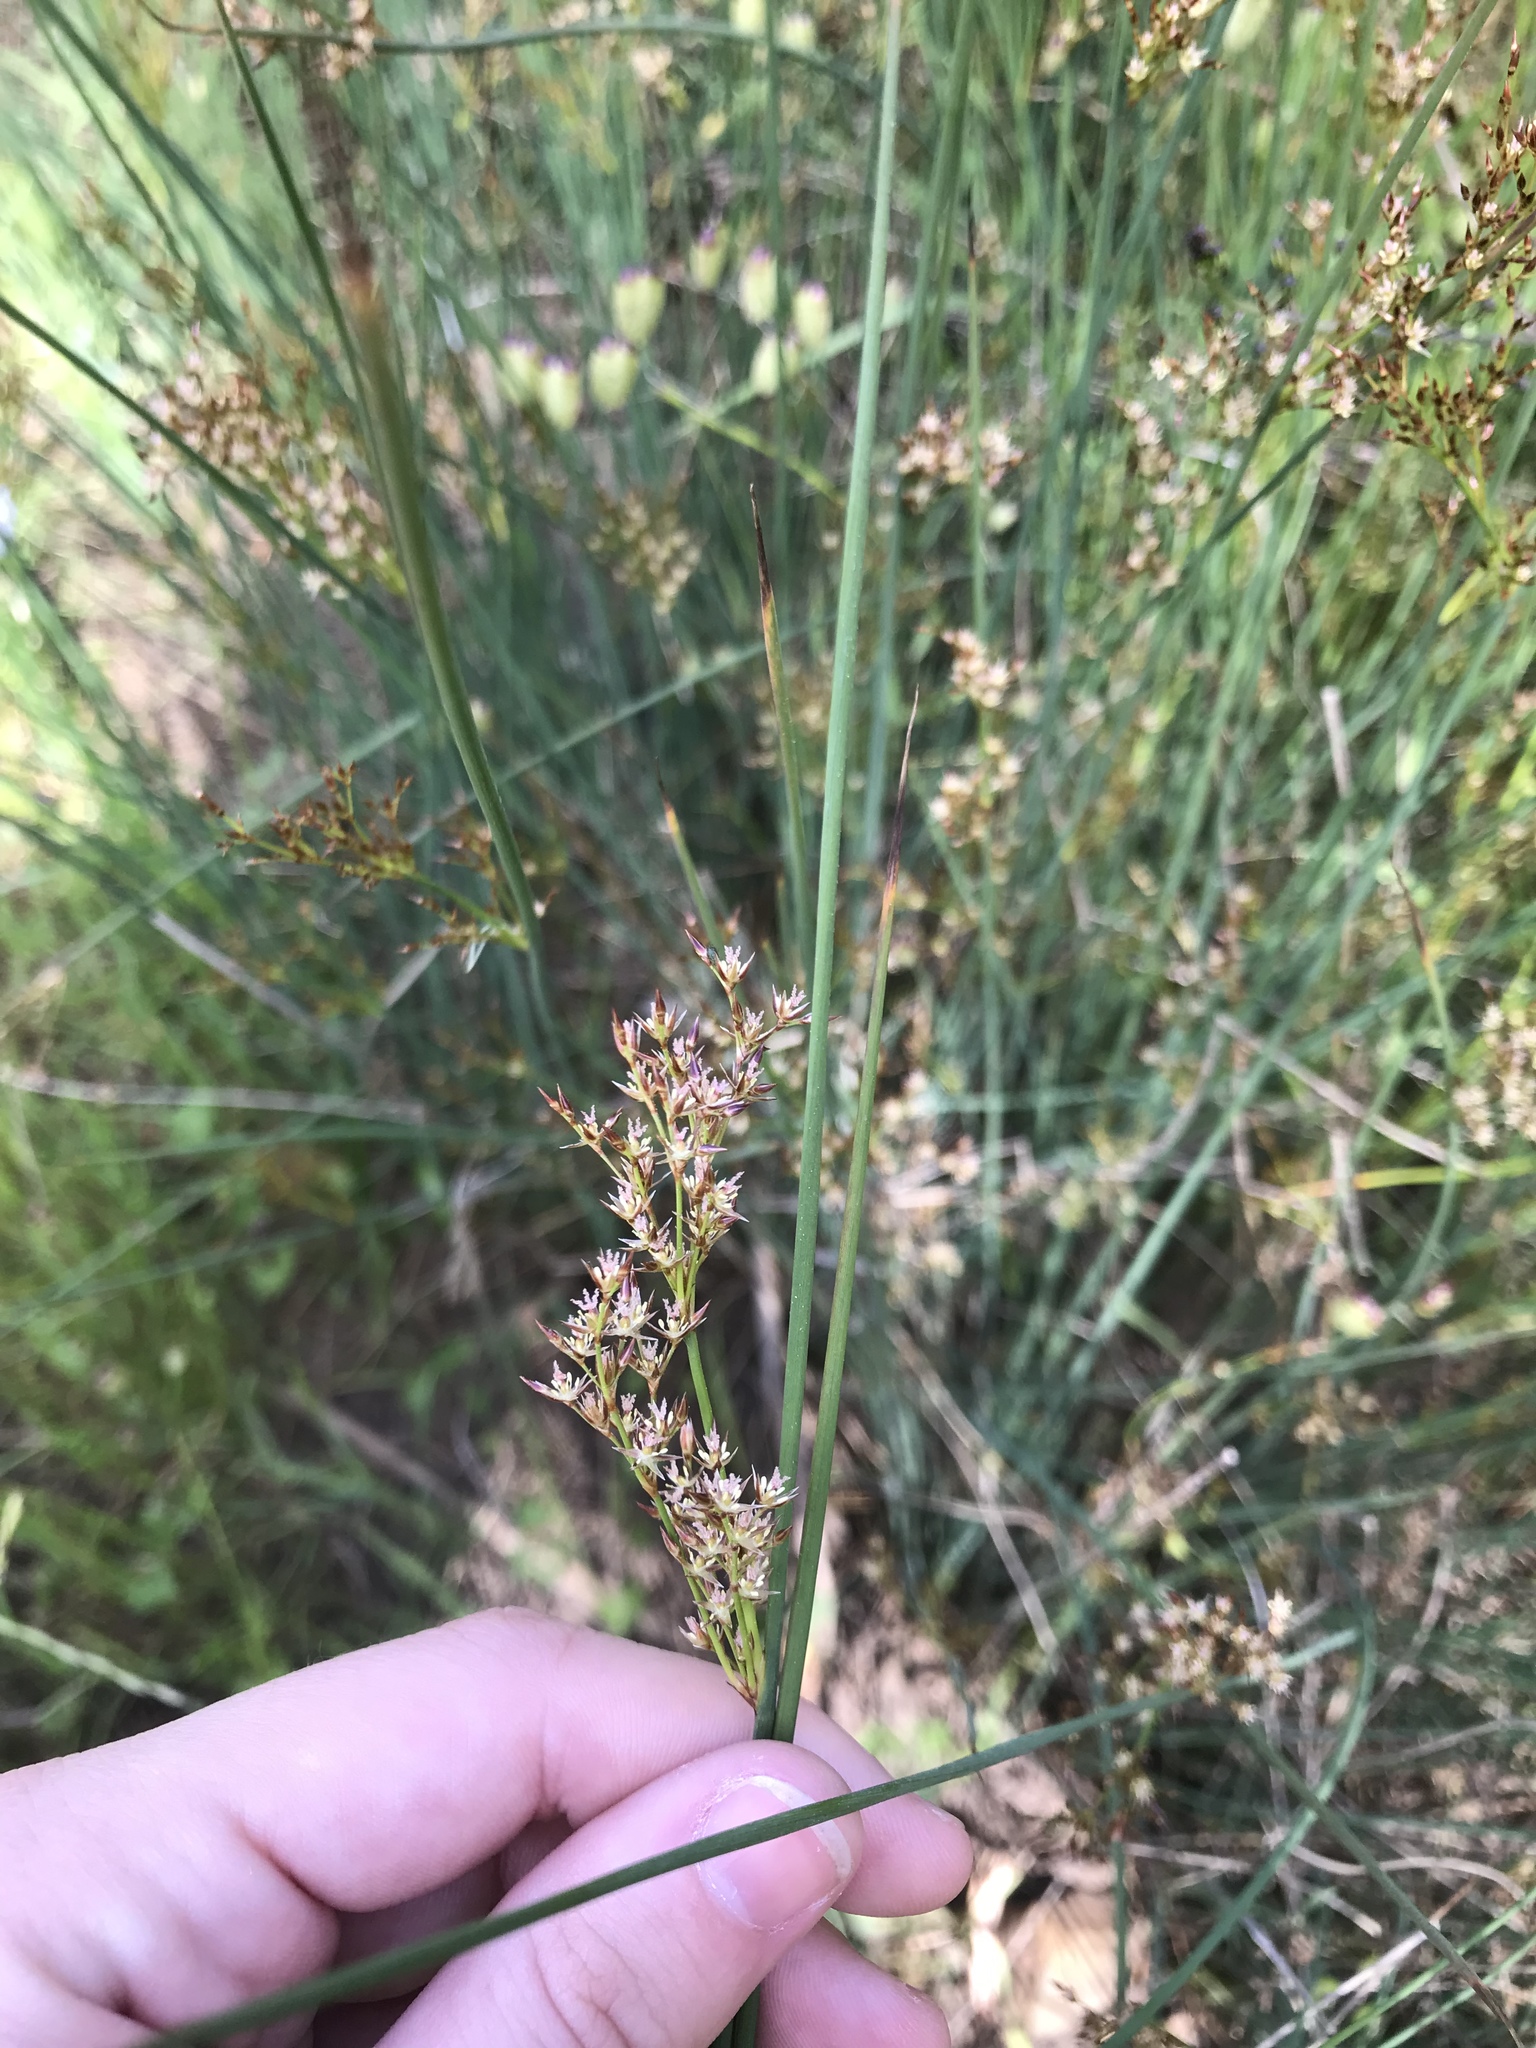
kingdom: Plantae
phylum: Tracheophyta
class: Liliopsida
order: Poales
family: Juncaceae
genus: Juncus
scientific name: Juncus patens
